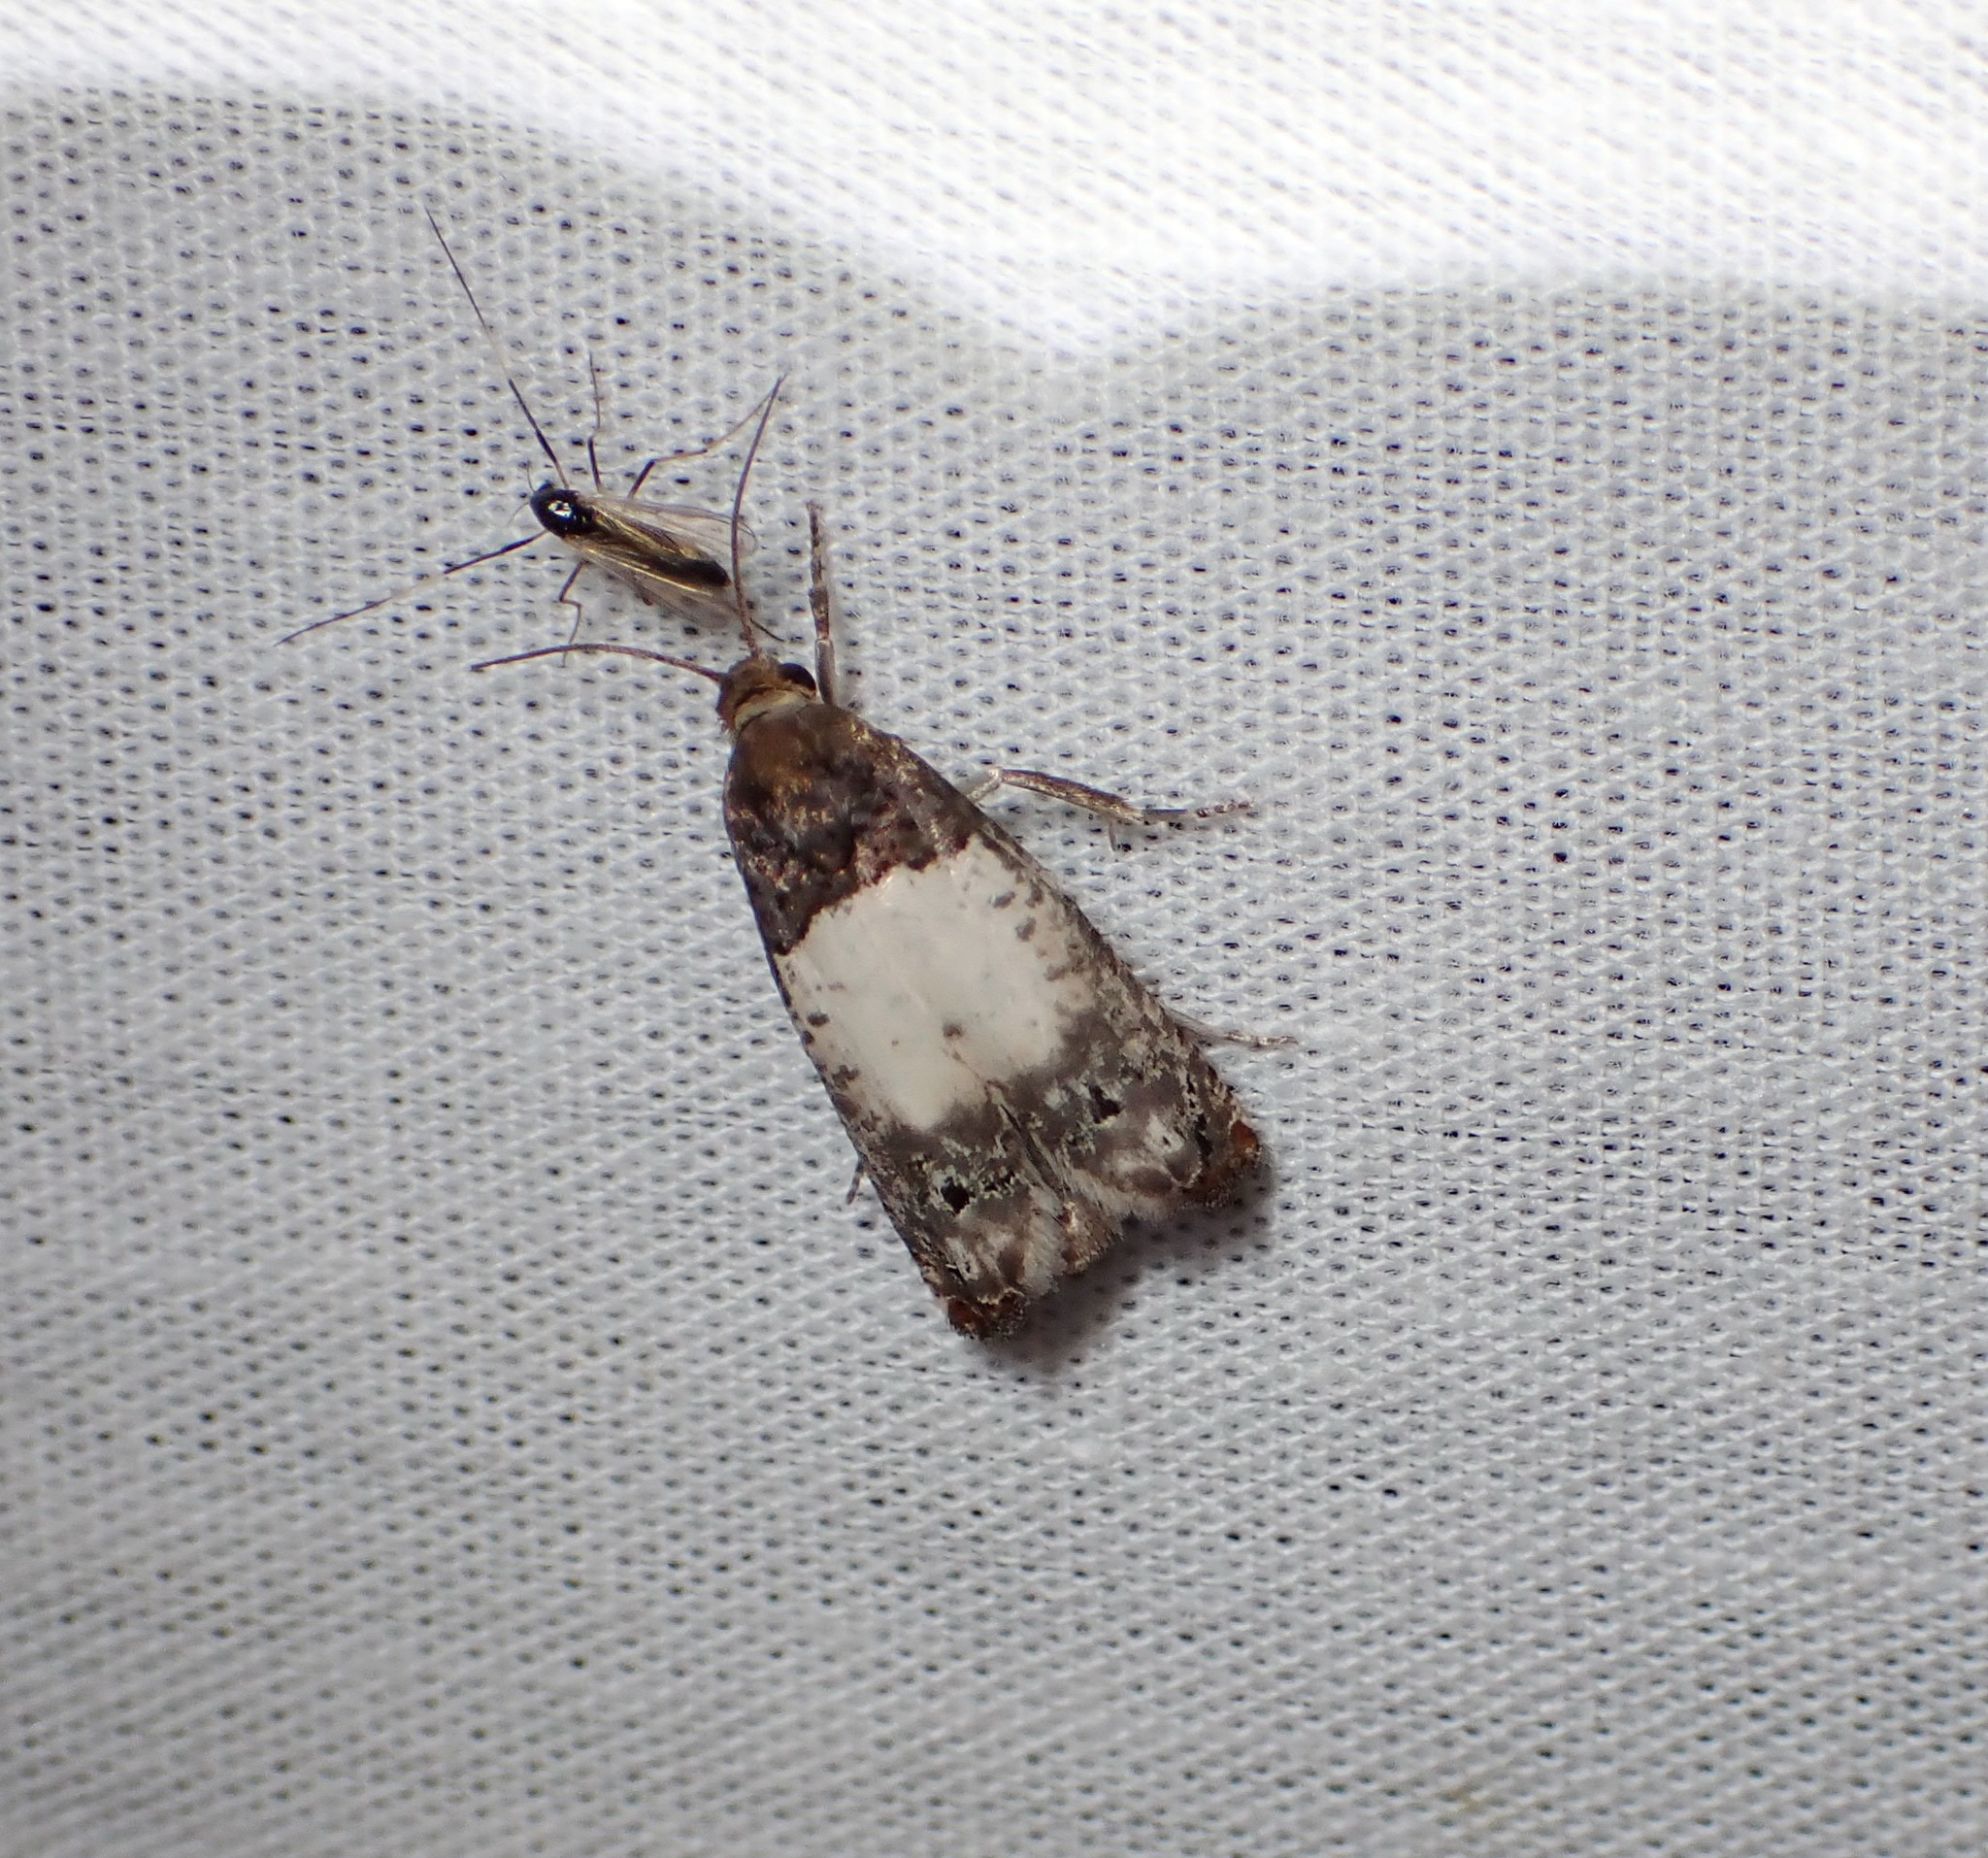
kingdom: Animalia
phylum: Arthropoda
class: Insecta
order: Lepidoptera
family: Tortricidae
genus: Epiblema
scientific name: Epiblema scudderiana
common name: Goldenrod gall moth
